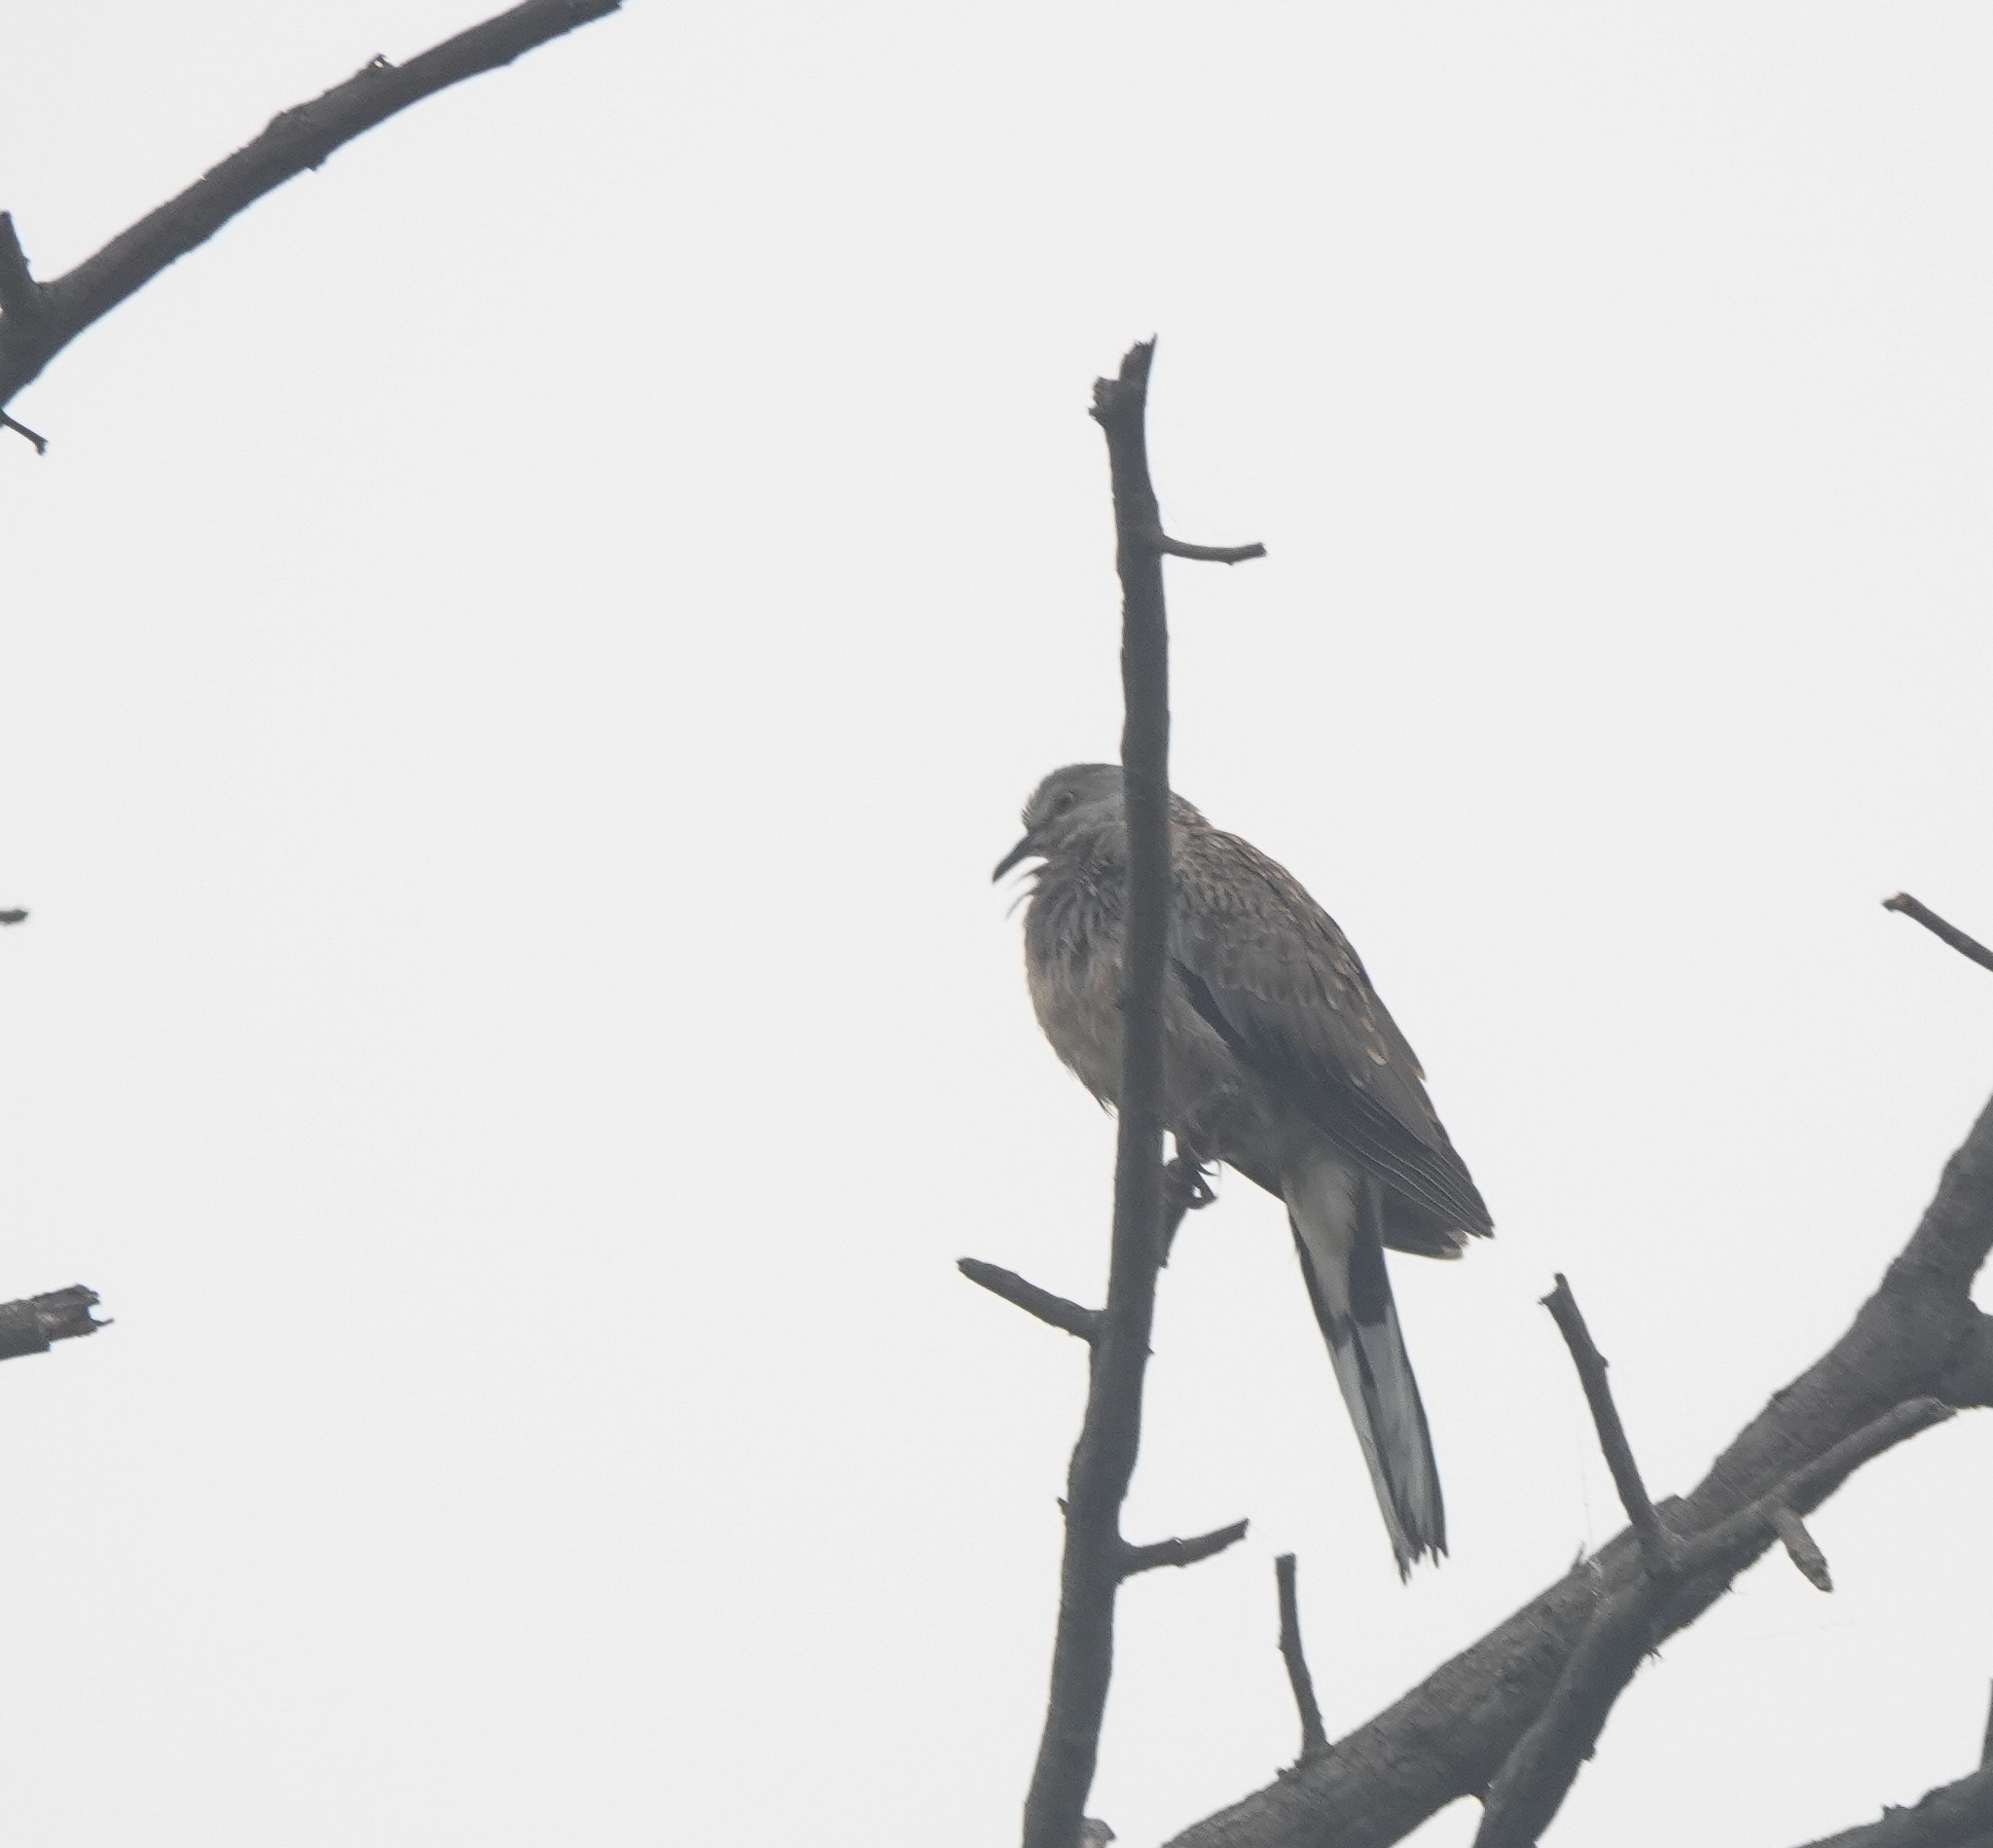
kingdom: Animalia
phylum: Chordata
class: Aves
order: Columbiformes
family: Columbidae
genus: Spilopelia
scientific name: Spilopelia chinensis
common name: Spotted dove
